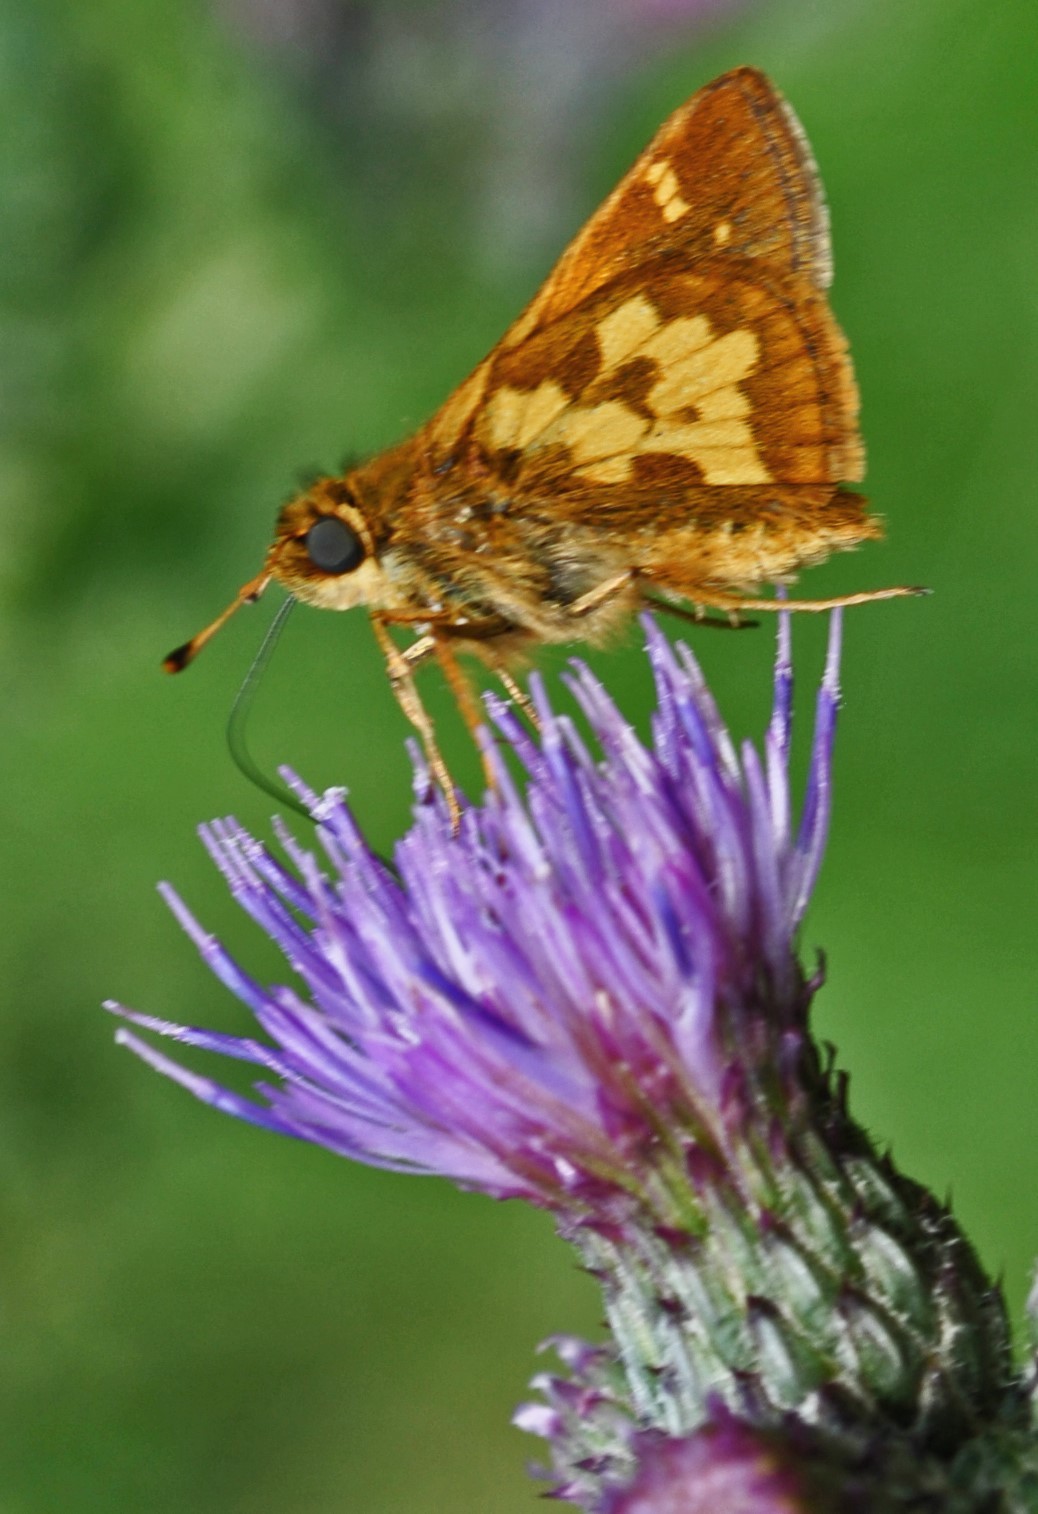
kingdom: Animalia
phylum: Arthropoda
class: Insecta
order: Lepidoptera
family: Hesperiidae
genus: Polites
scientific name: Polites coras
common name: Peck's skipper
